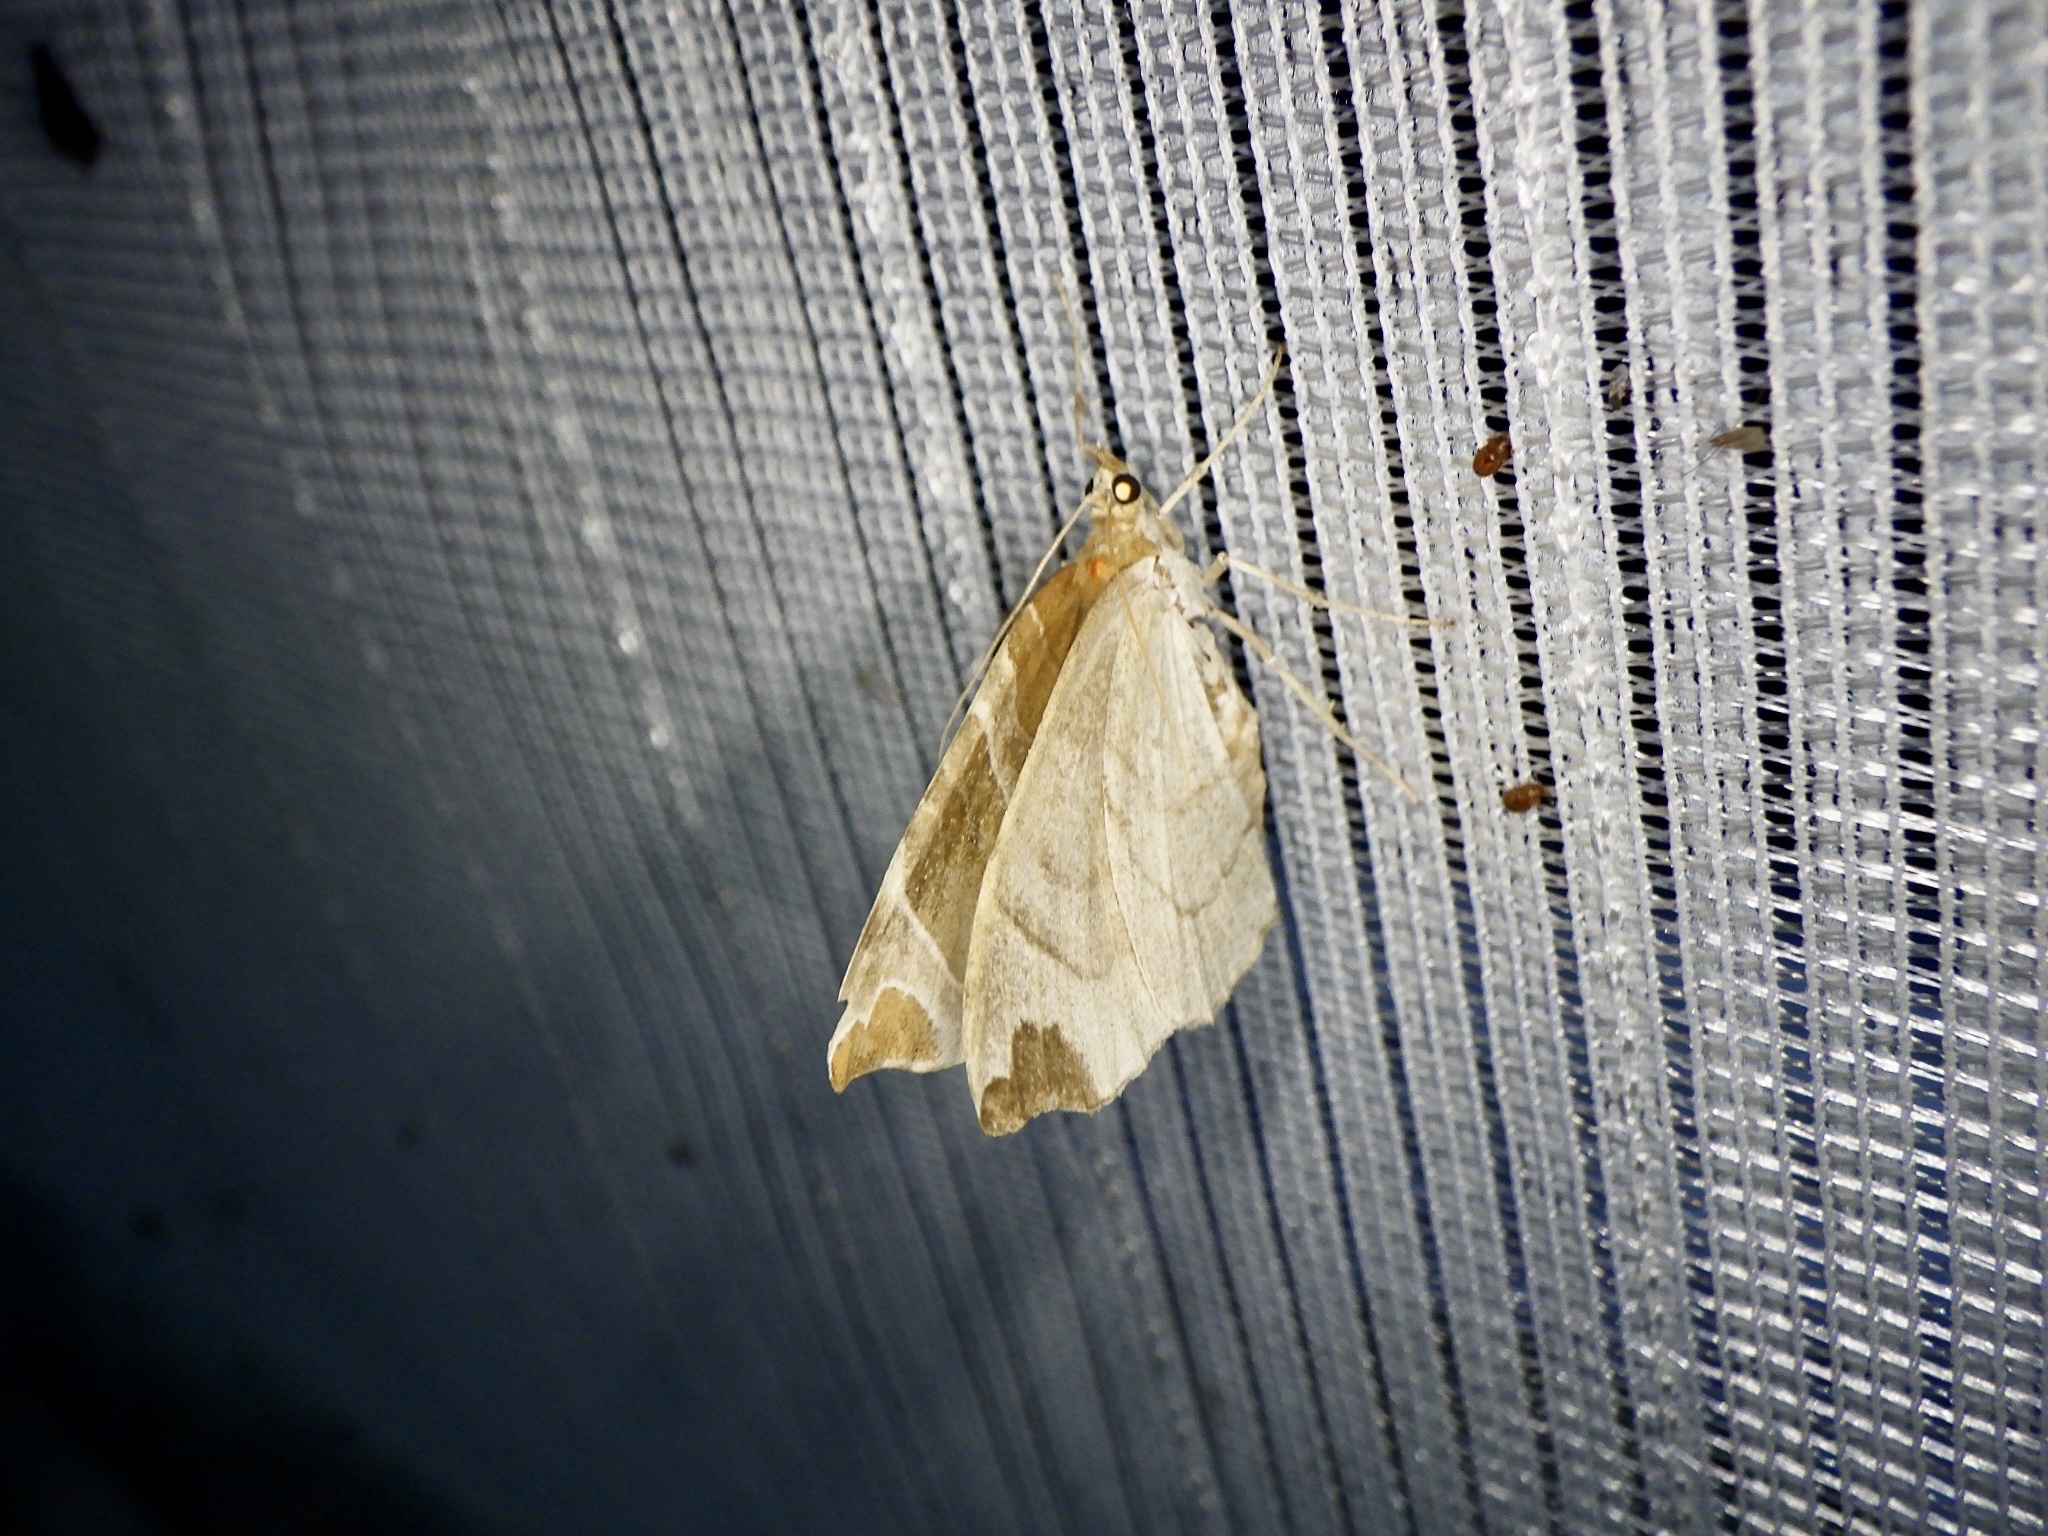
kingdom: Animalia
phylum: Arthropoda
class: Insecta
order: Lepidoptera
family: Geometridae
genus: Eulithis
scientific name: Eulithis ledereri
